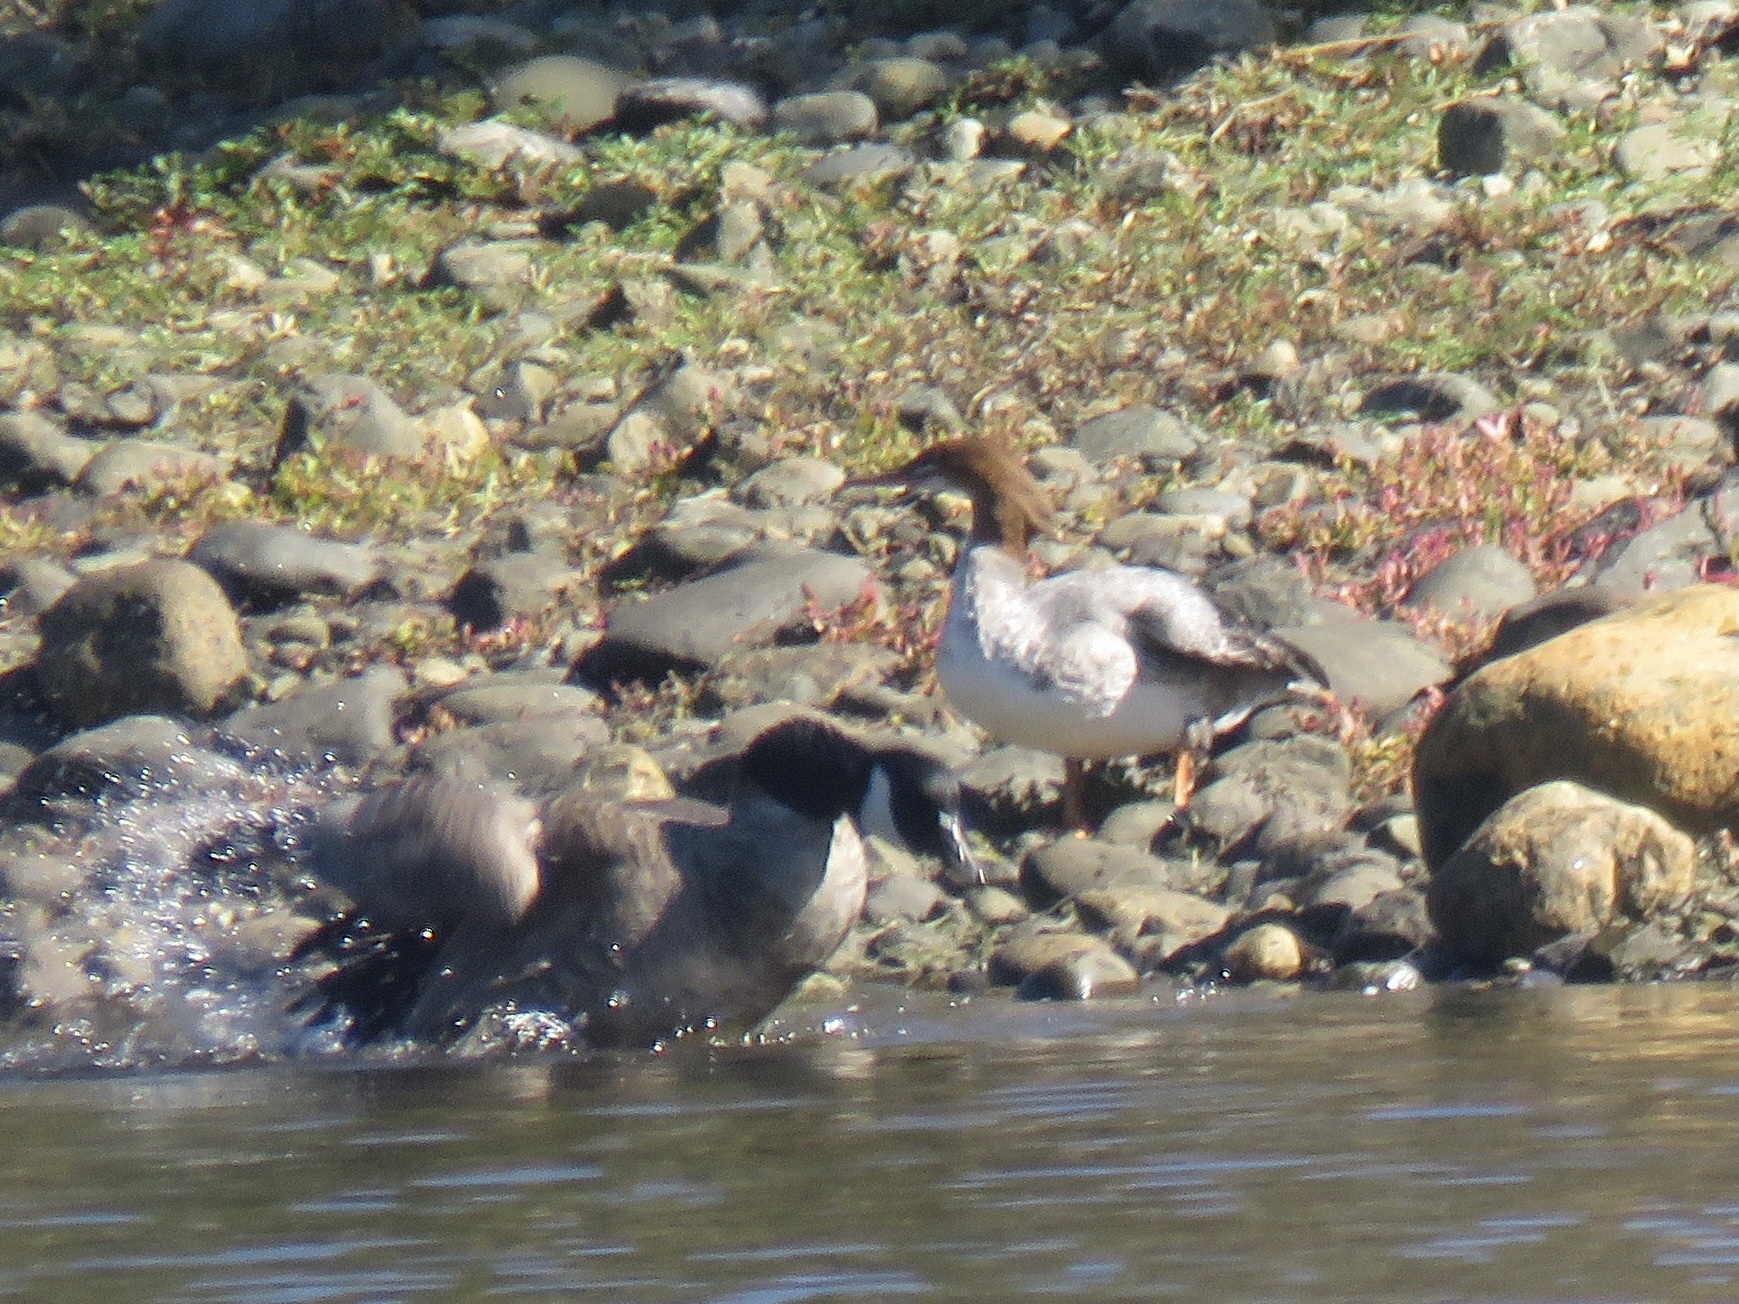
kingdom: Animalia
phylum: Chordata
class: Aves
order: Anseriformes
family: Anatidae
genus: Mergus
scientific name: Mergus merganser
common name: Common merganser
